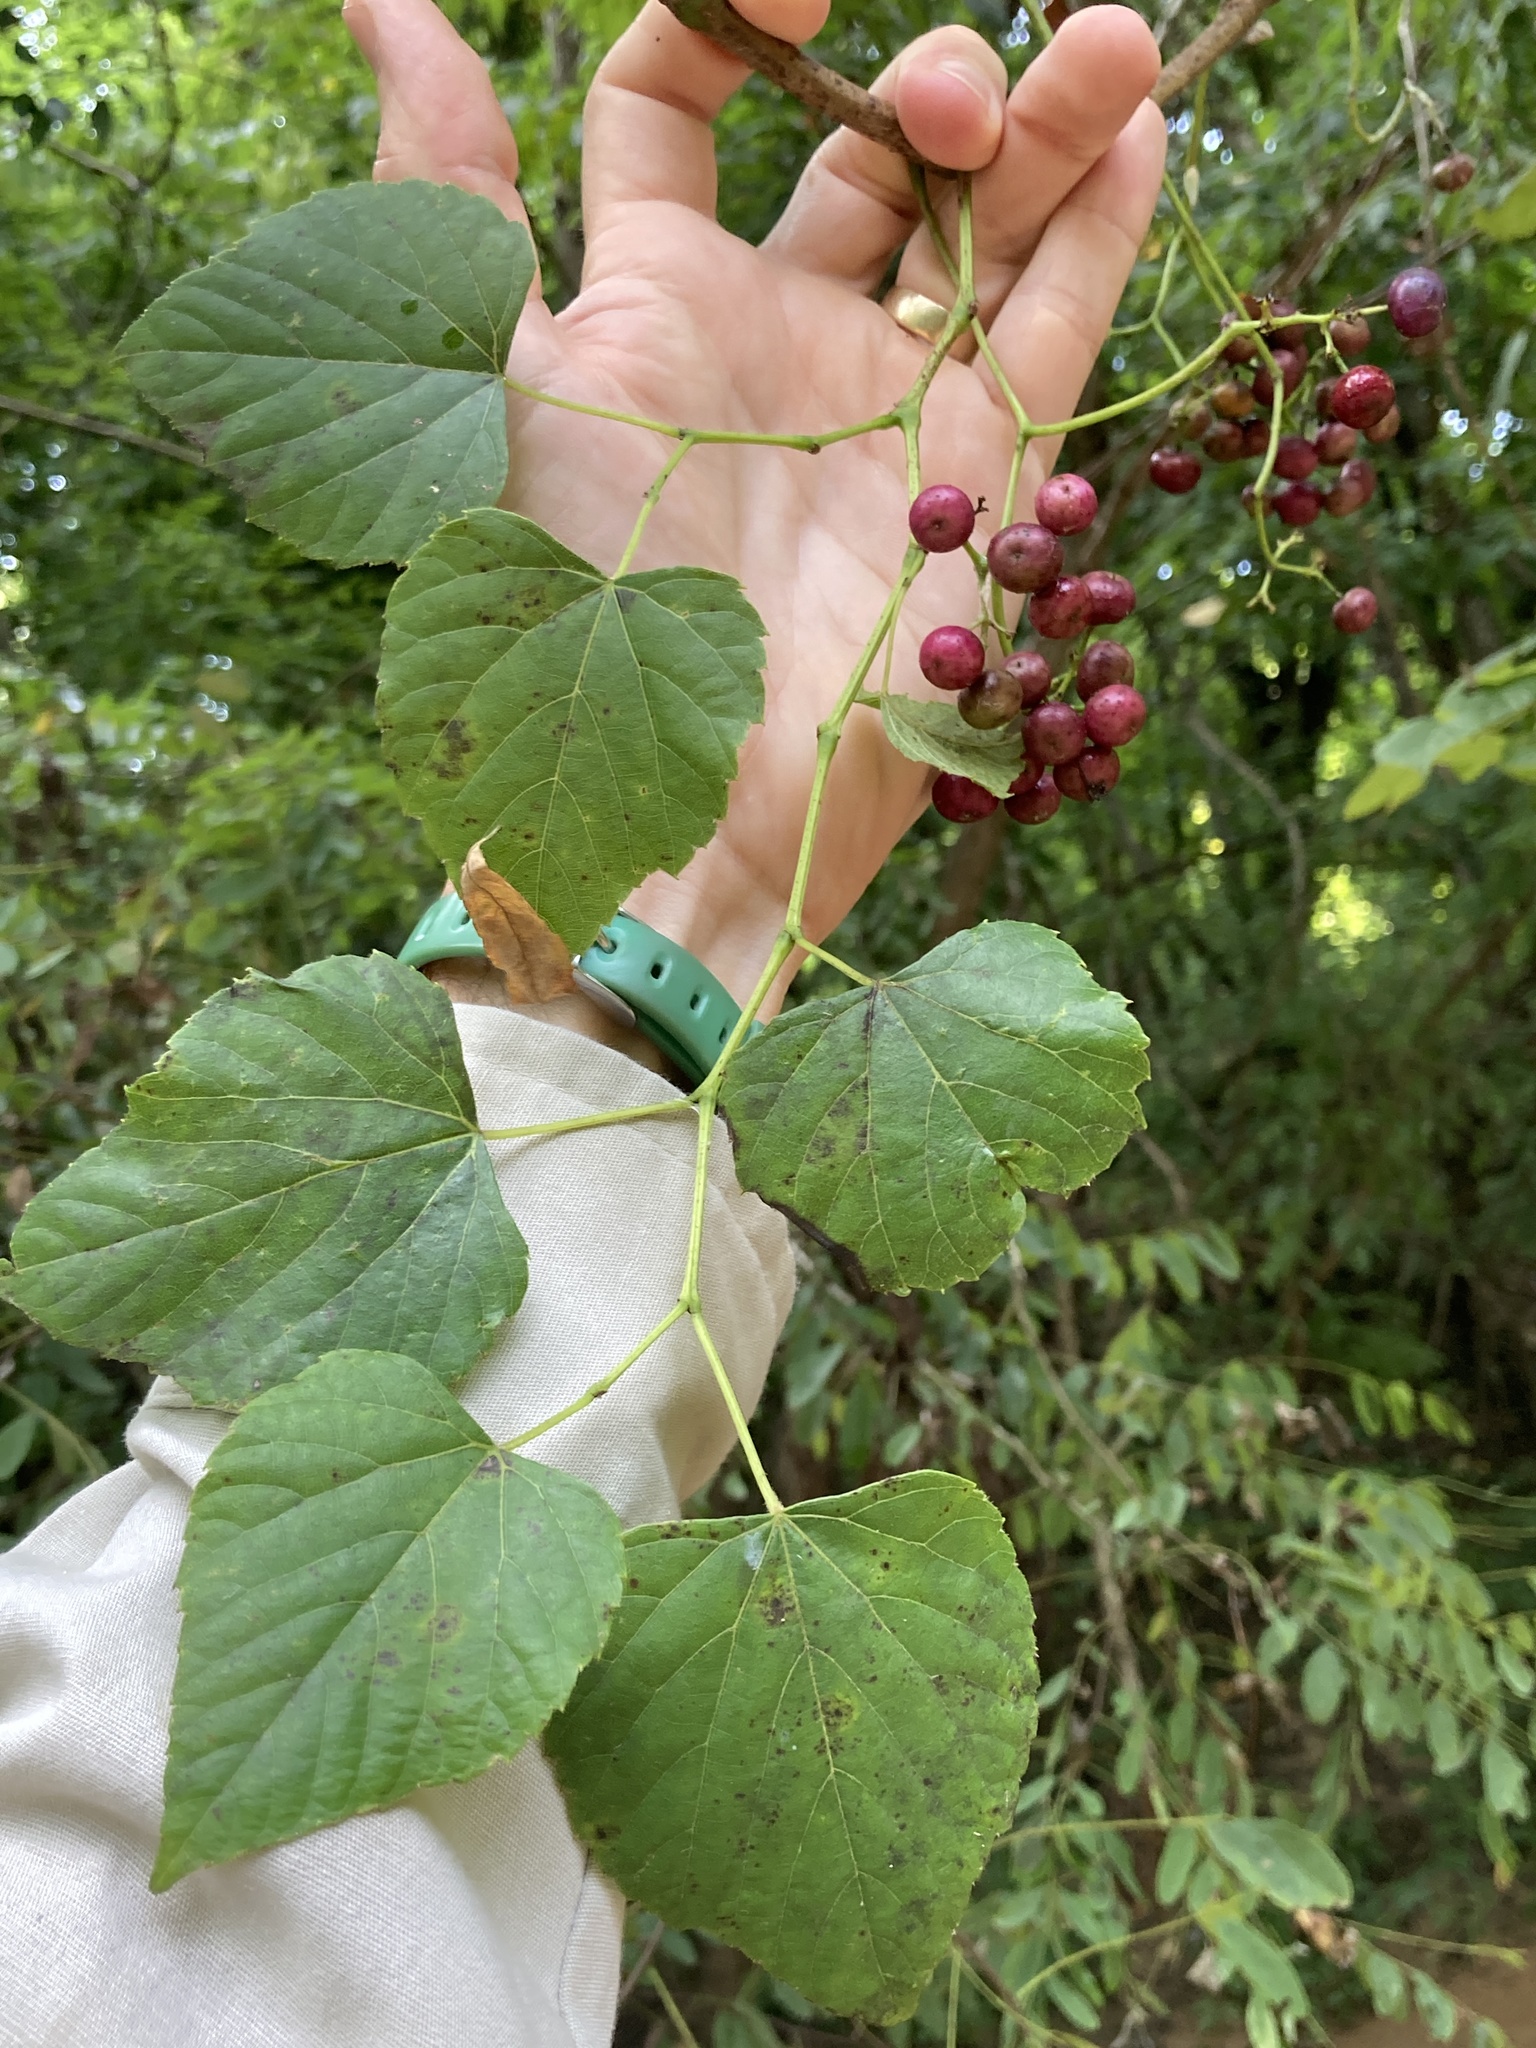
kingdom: Plantae
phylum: Tracheophyta
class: Magnoliopsida
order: Vitales
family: Vitaceae
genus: Ampelopsis
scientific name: Ampelopsis cordata
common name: Heart-leaf ampelopsis
